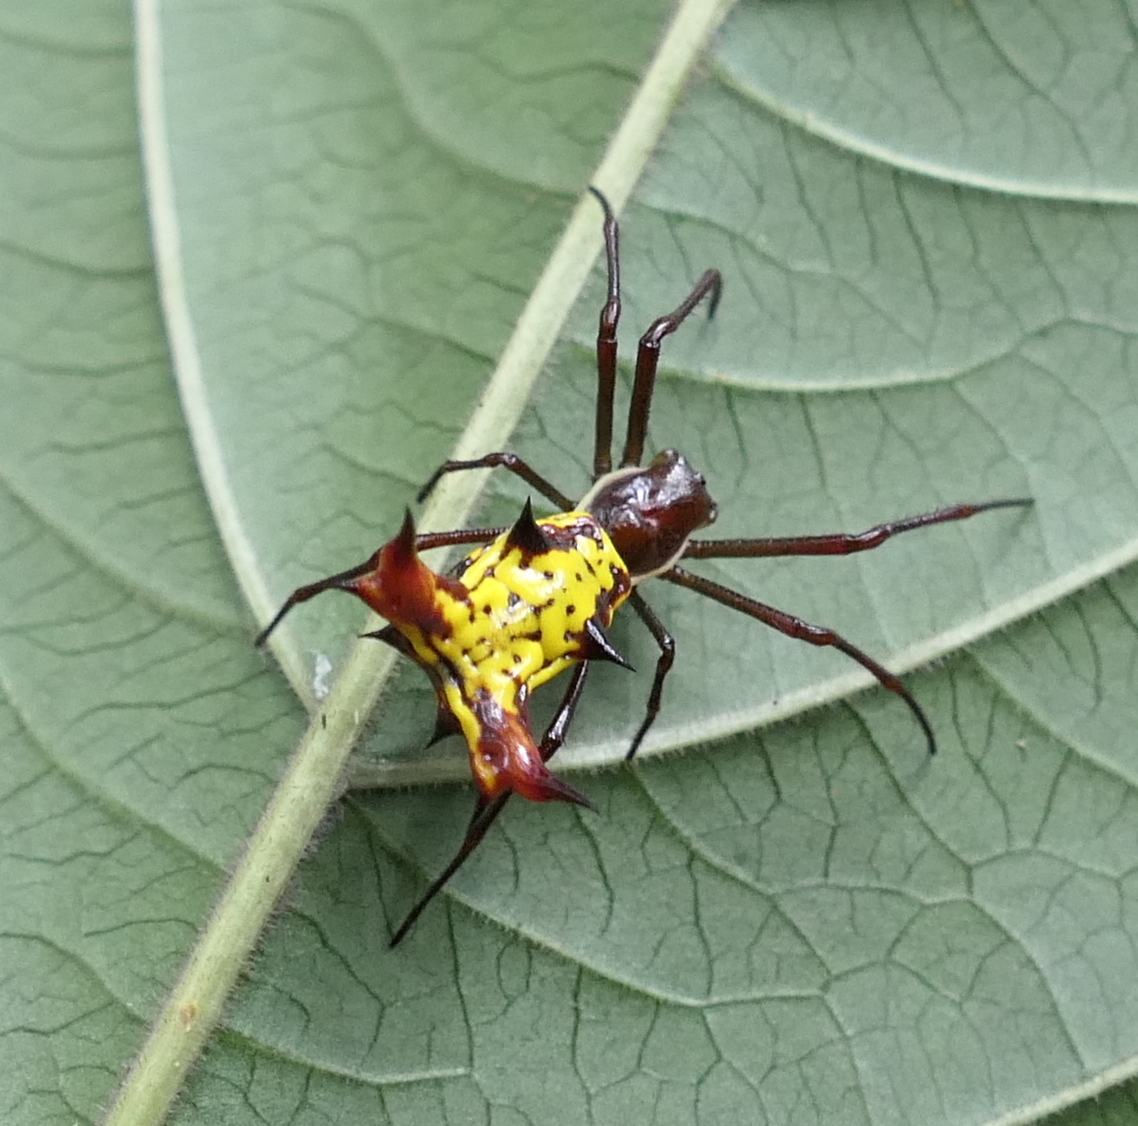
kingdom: Animalia
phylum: Arthropoda
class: Arachnida
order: Araneae
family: Araneidae
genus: Micrathena
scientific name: Micrathena fissispina
